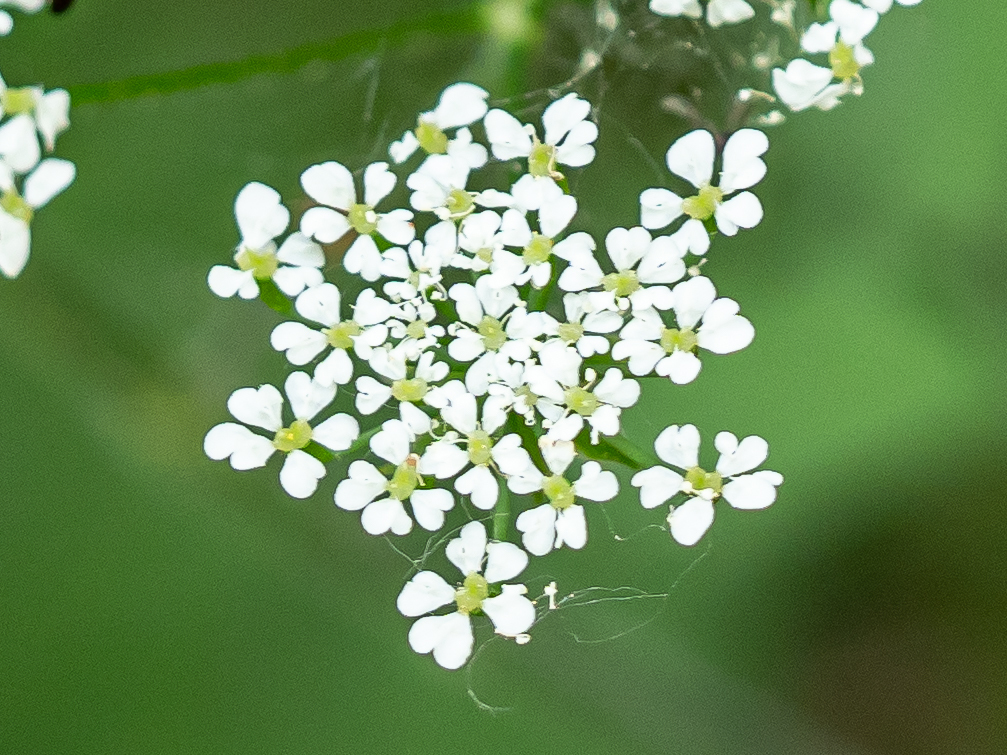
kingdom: Plantae
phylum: Tracheophyta
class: Magnoliopsida
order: Apiales
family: Apiaceae
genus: Chaerophyllum
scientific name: Chaerophyllum temulum
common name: Rough chervil
